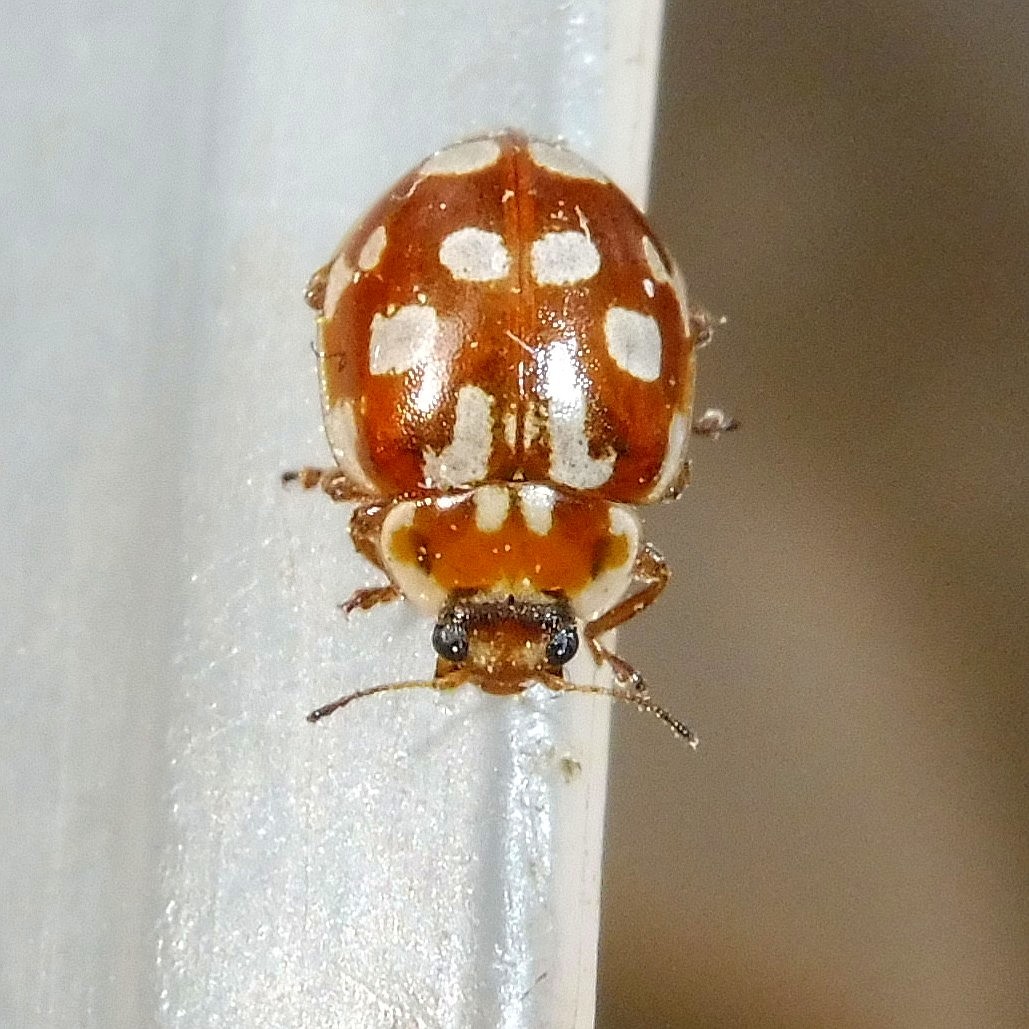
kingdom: Animalia
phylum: Arthropoda
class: Insecta
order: Coleoptera
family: Coccinellidae
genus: Myrrha
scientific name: Myrrha octodecimguttata
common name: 18-spot ladybird
